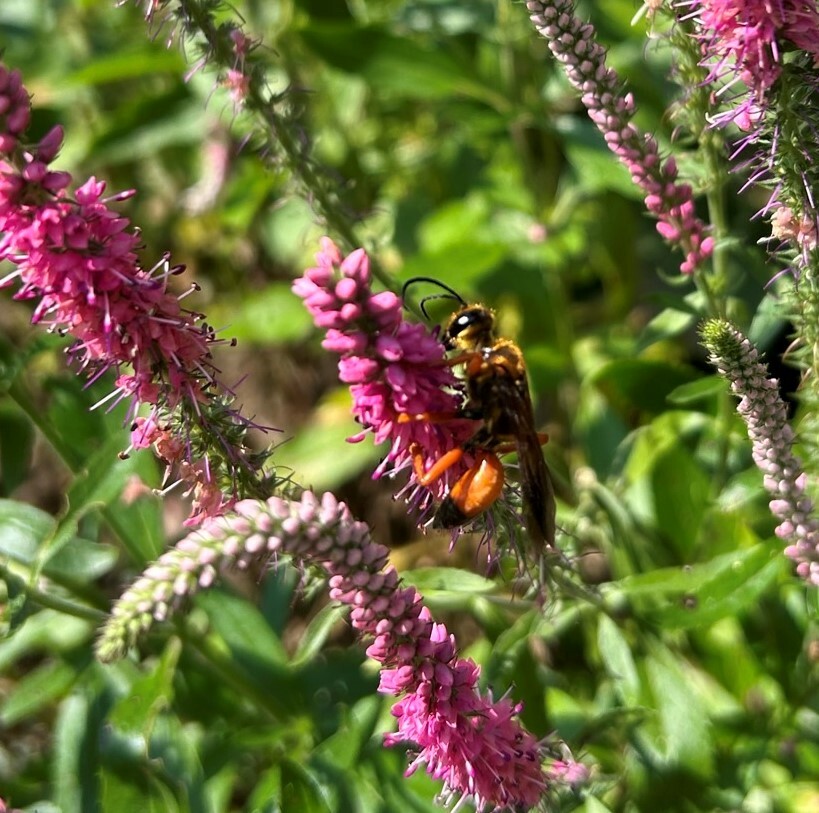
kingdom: Animalia
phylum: Arthropoda
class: Insecta
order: Hymenoptera
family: Sphecidae
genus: Sphex
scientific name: Sphex ichneumoneus
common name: Great golden digger wasp
